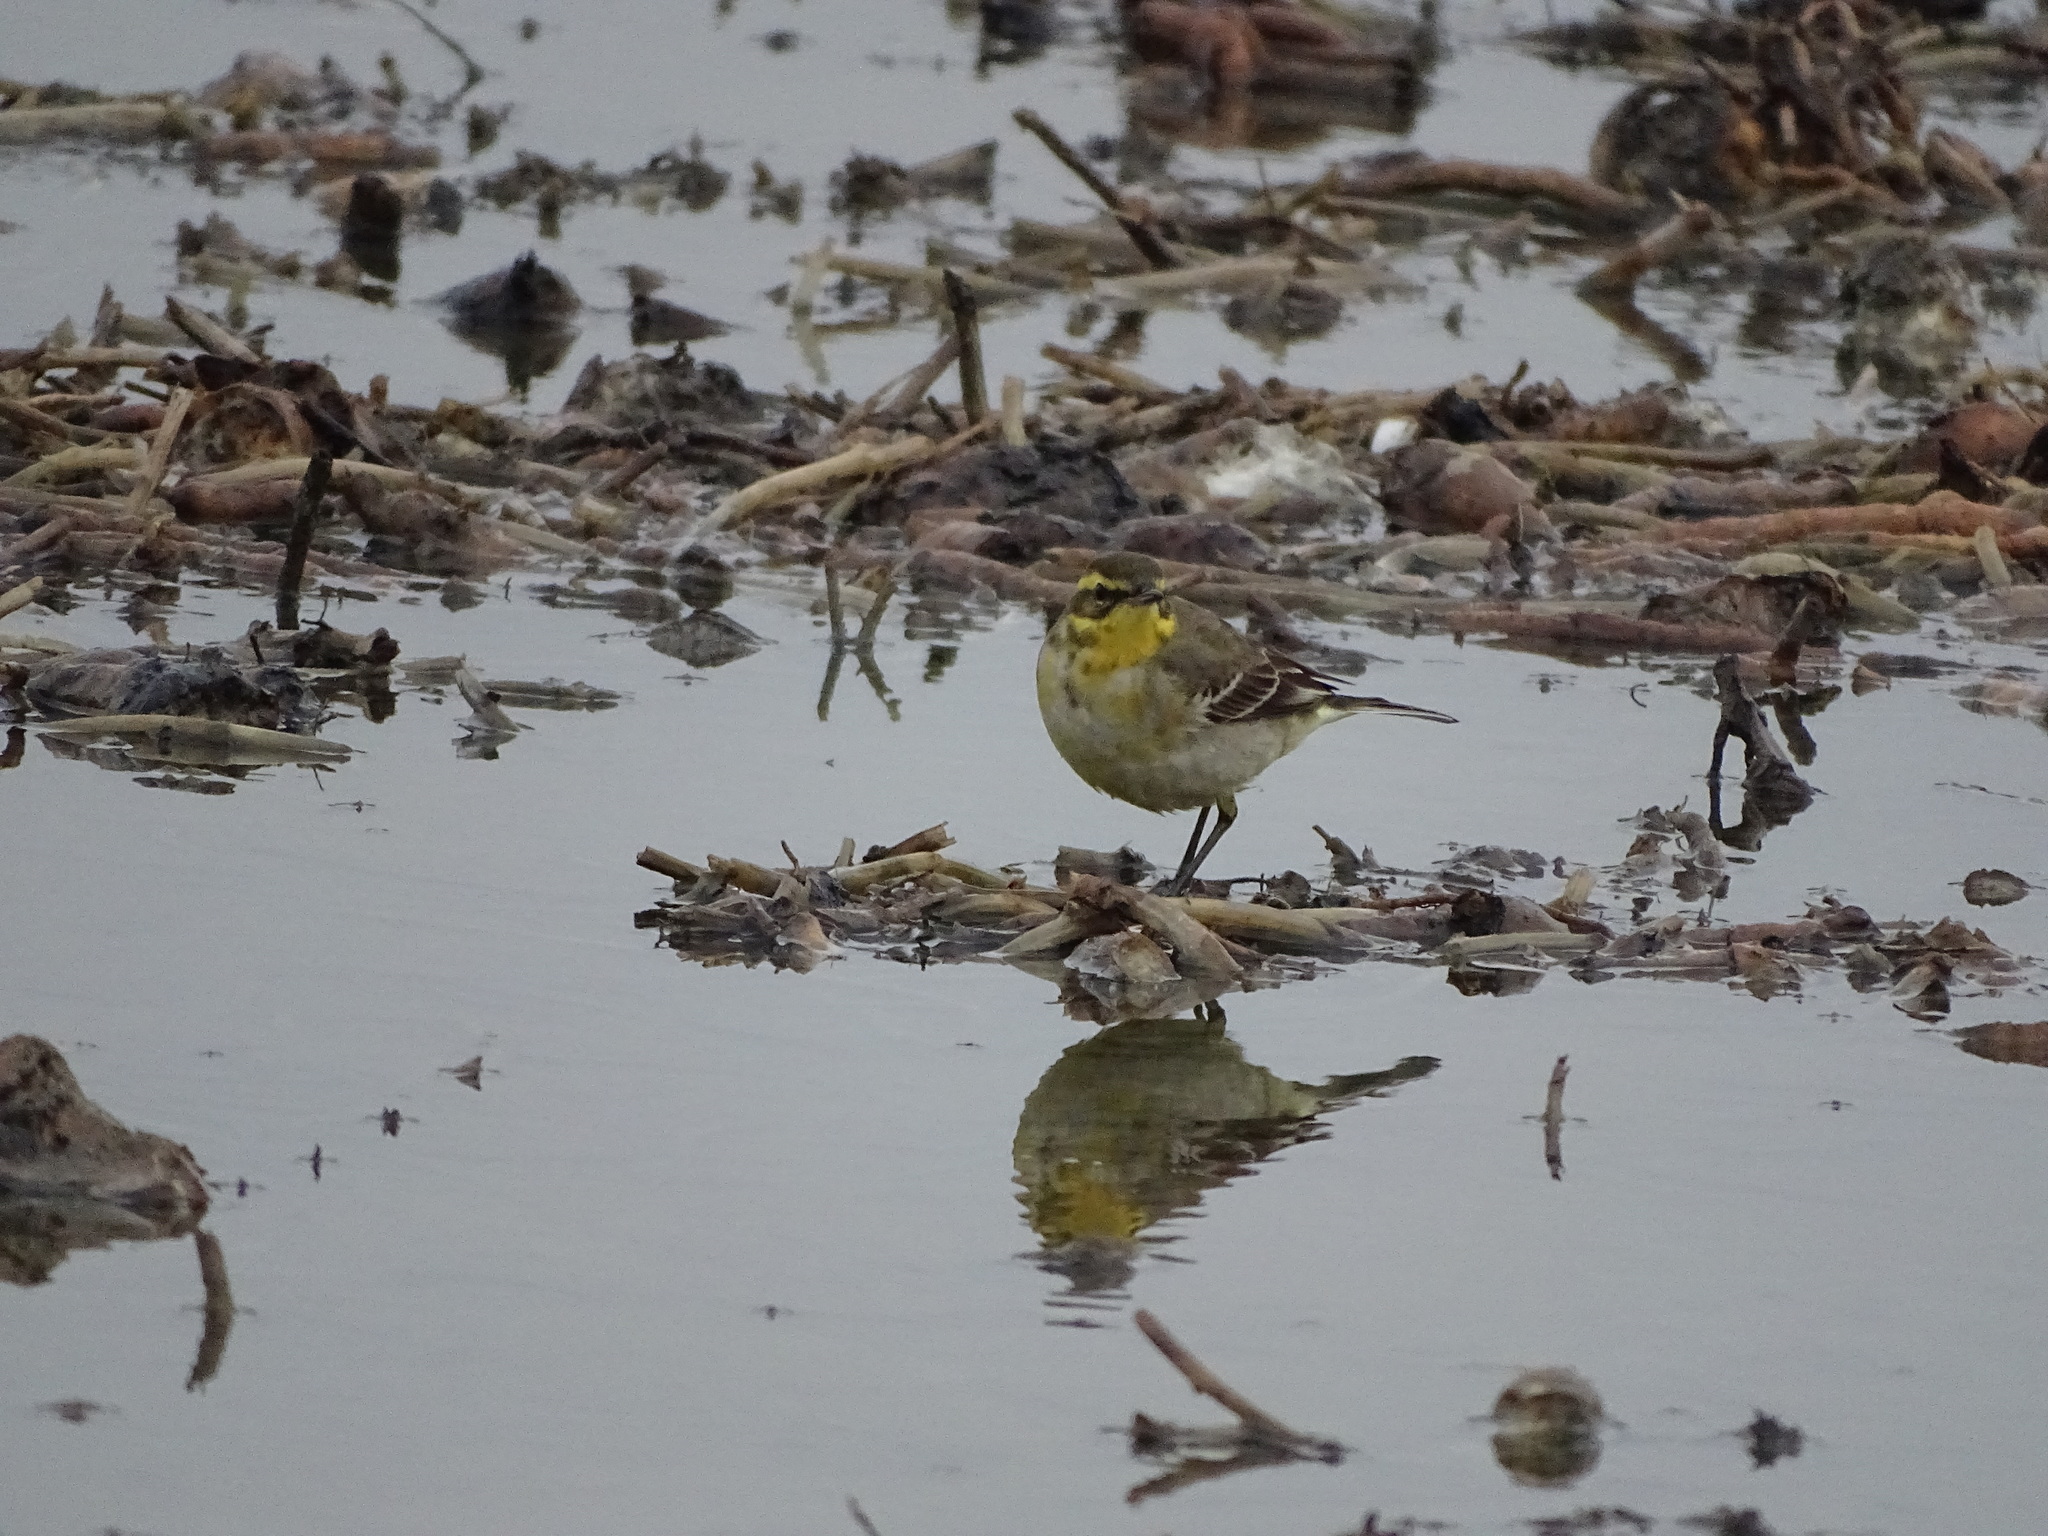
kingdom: Animalia
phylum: Chordata
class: Aves
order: Passeriformes
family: Motacillidae
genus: Motacilla
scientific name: Motacilla tschutschensis
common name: Eastern yellow wagtail
